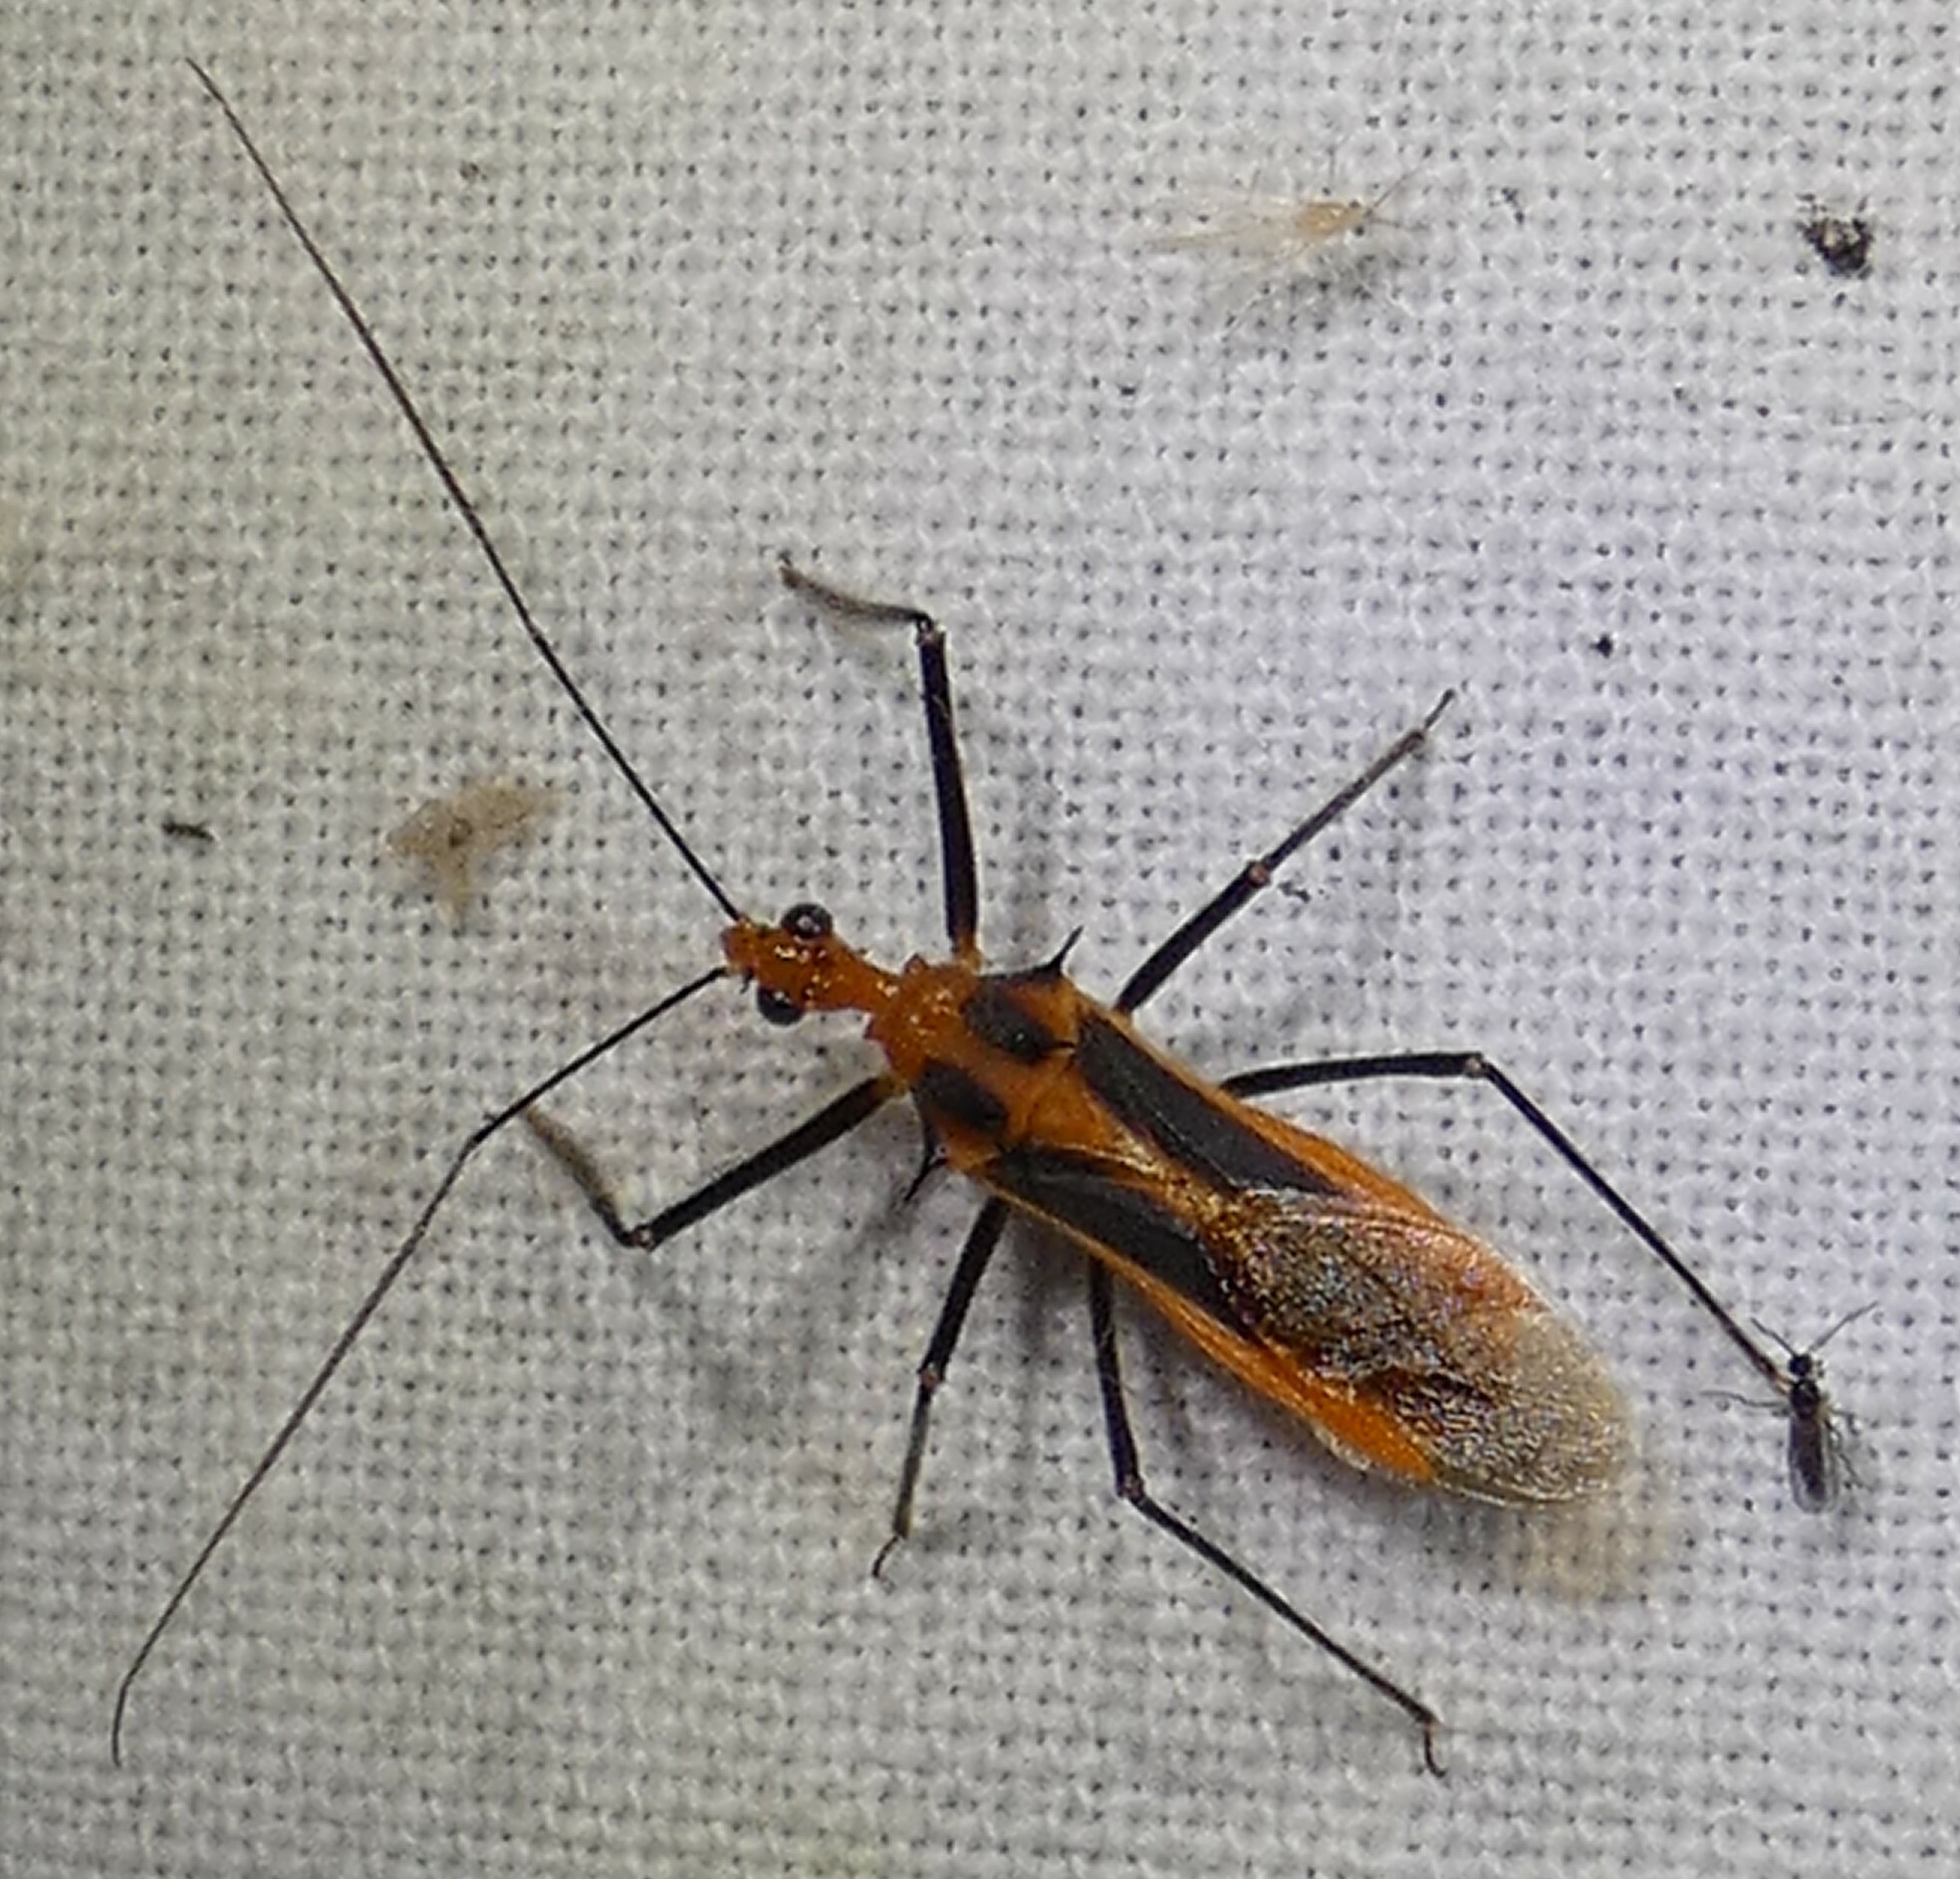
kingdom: Animalia
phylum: Arthropoda
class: Insecta
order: Hemiptera
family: Reduviidae
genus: Repipta
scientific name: Repipta taurus
